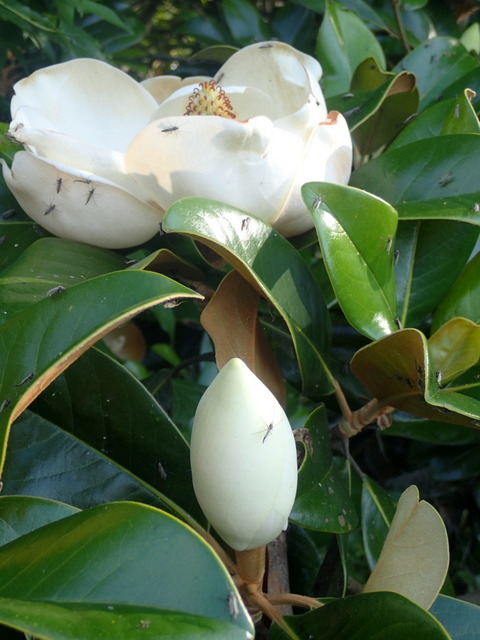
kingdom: Plantae
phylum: Tracheophyta
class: Magnoliopsida
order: Magnoliales
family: Magnoliaceae
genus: Magnolia
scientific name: Magnolia grandiflora
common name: Southern magnolia
